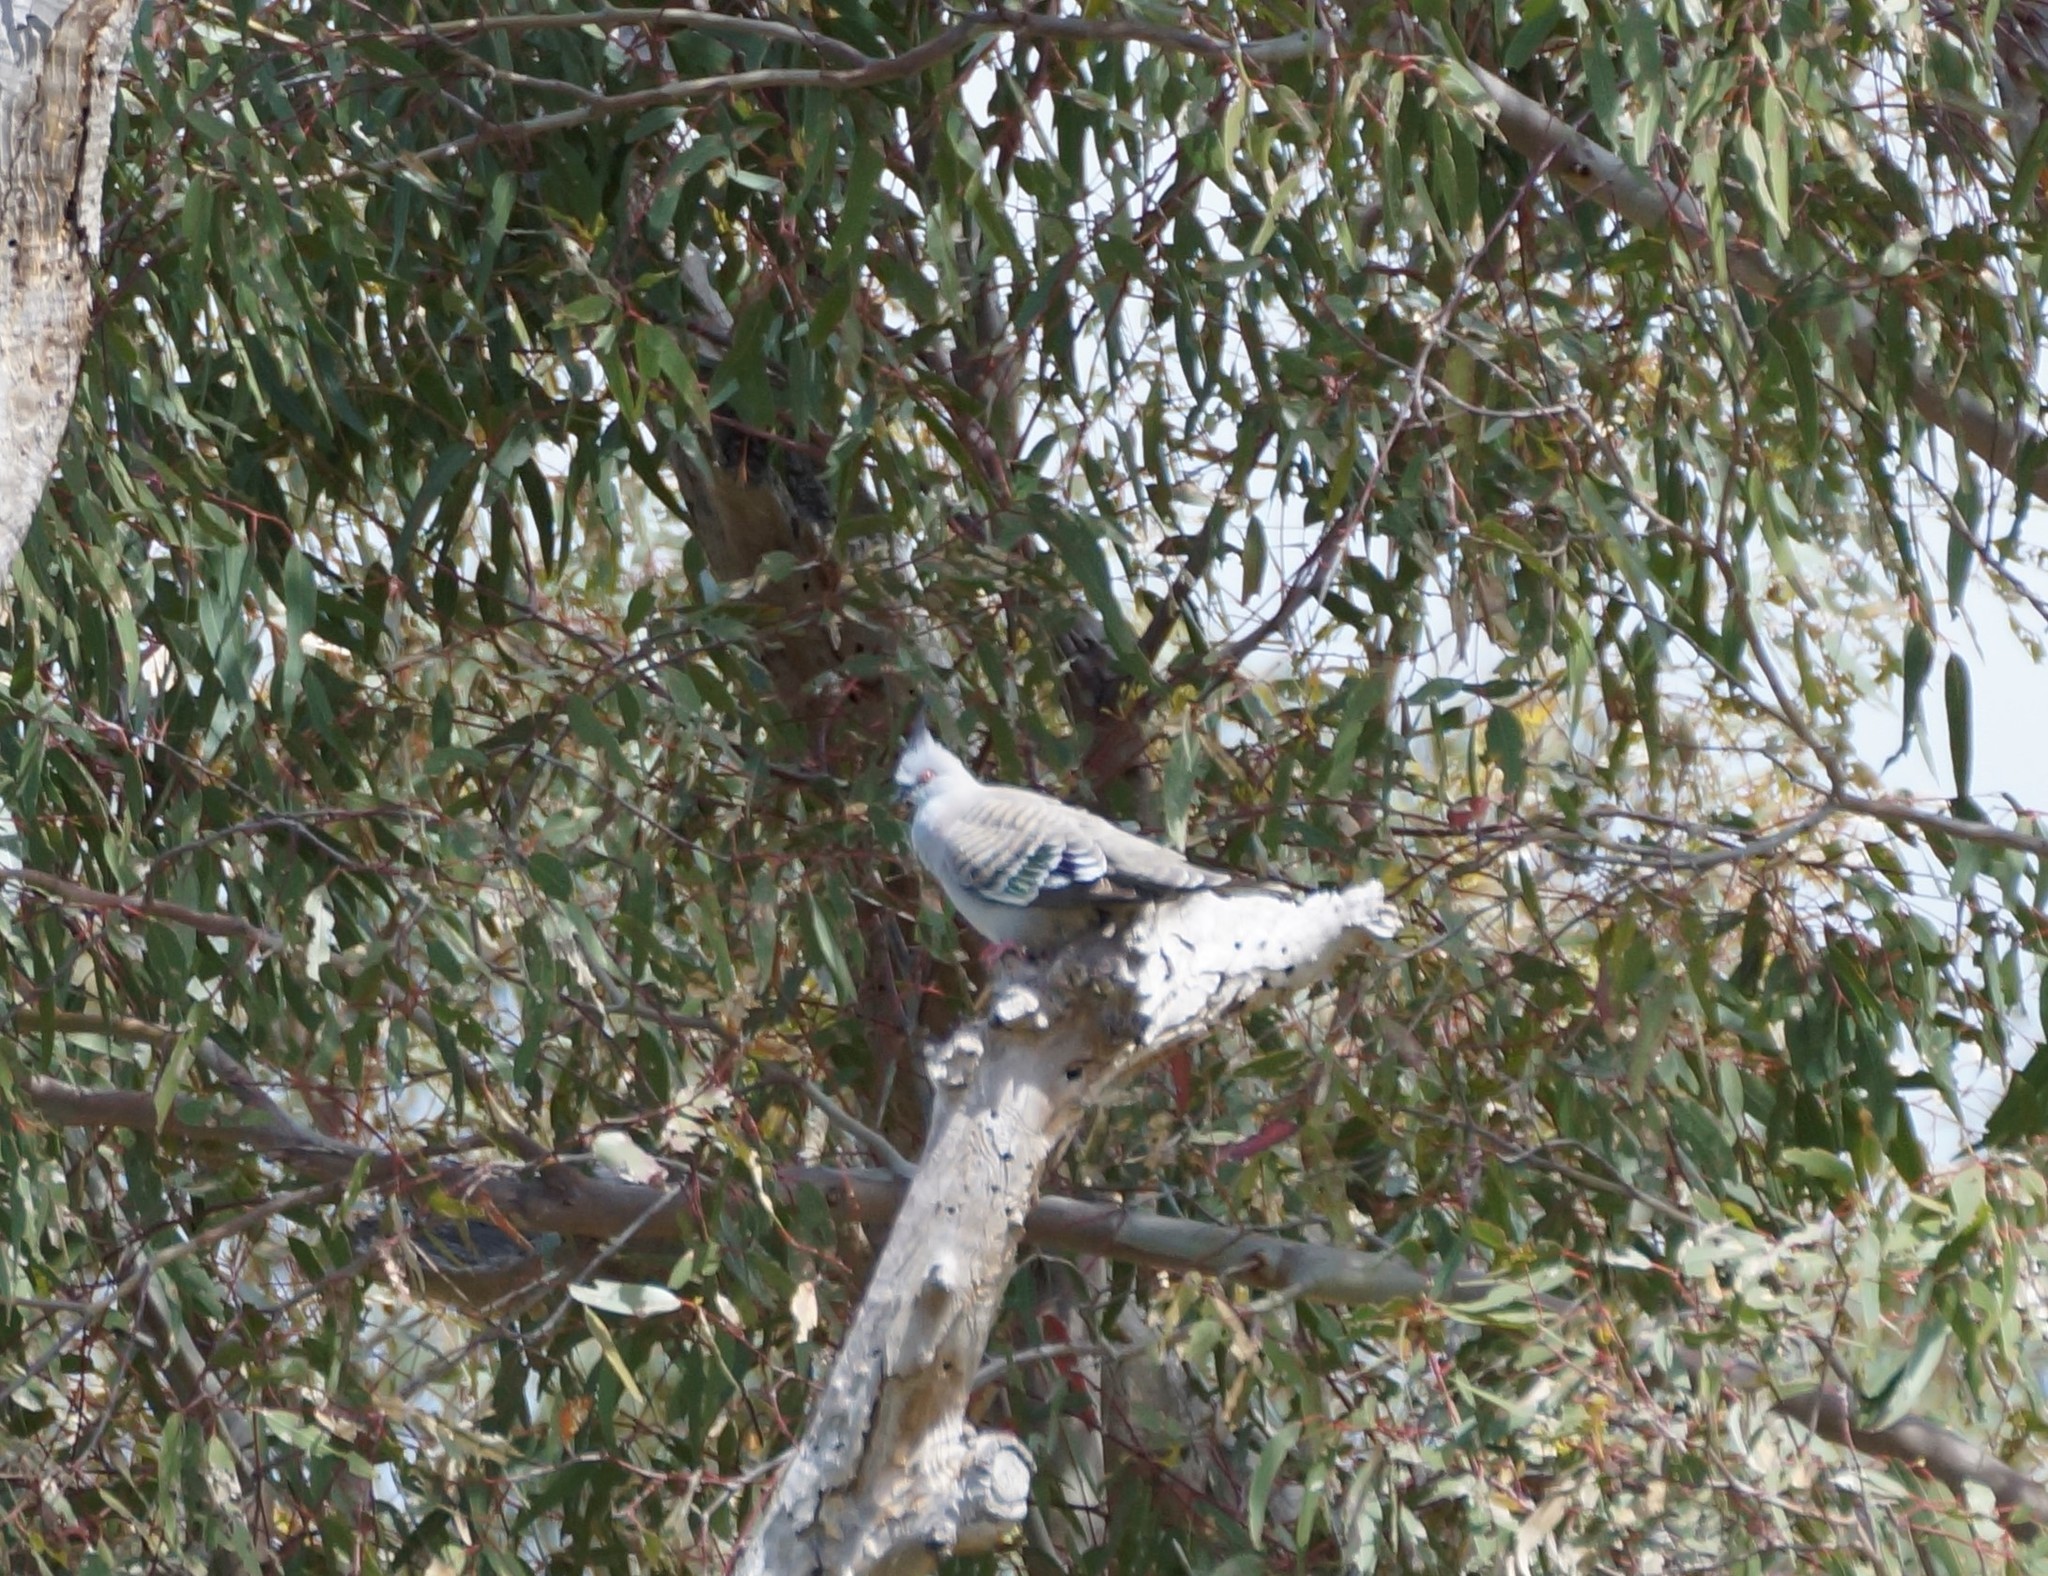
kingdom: Animalia
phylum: Chordata
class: Aves
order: Columbiformes
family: Columbidae
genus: Ocyphaps
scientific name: Ocyphaps lophotes
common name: Crested pigeon
